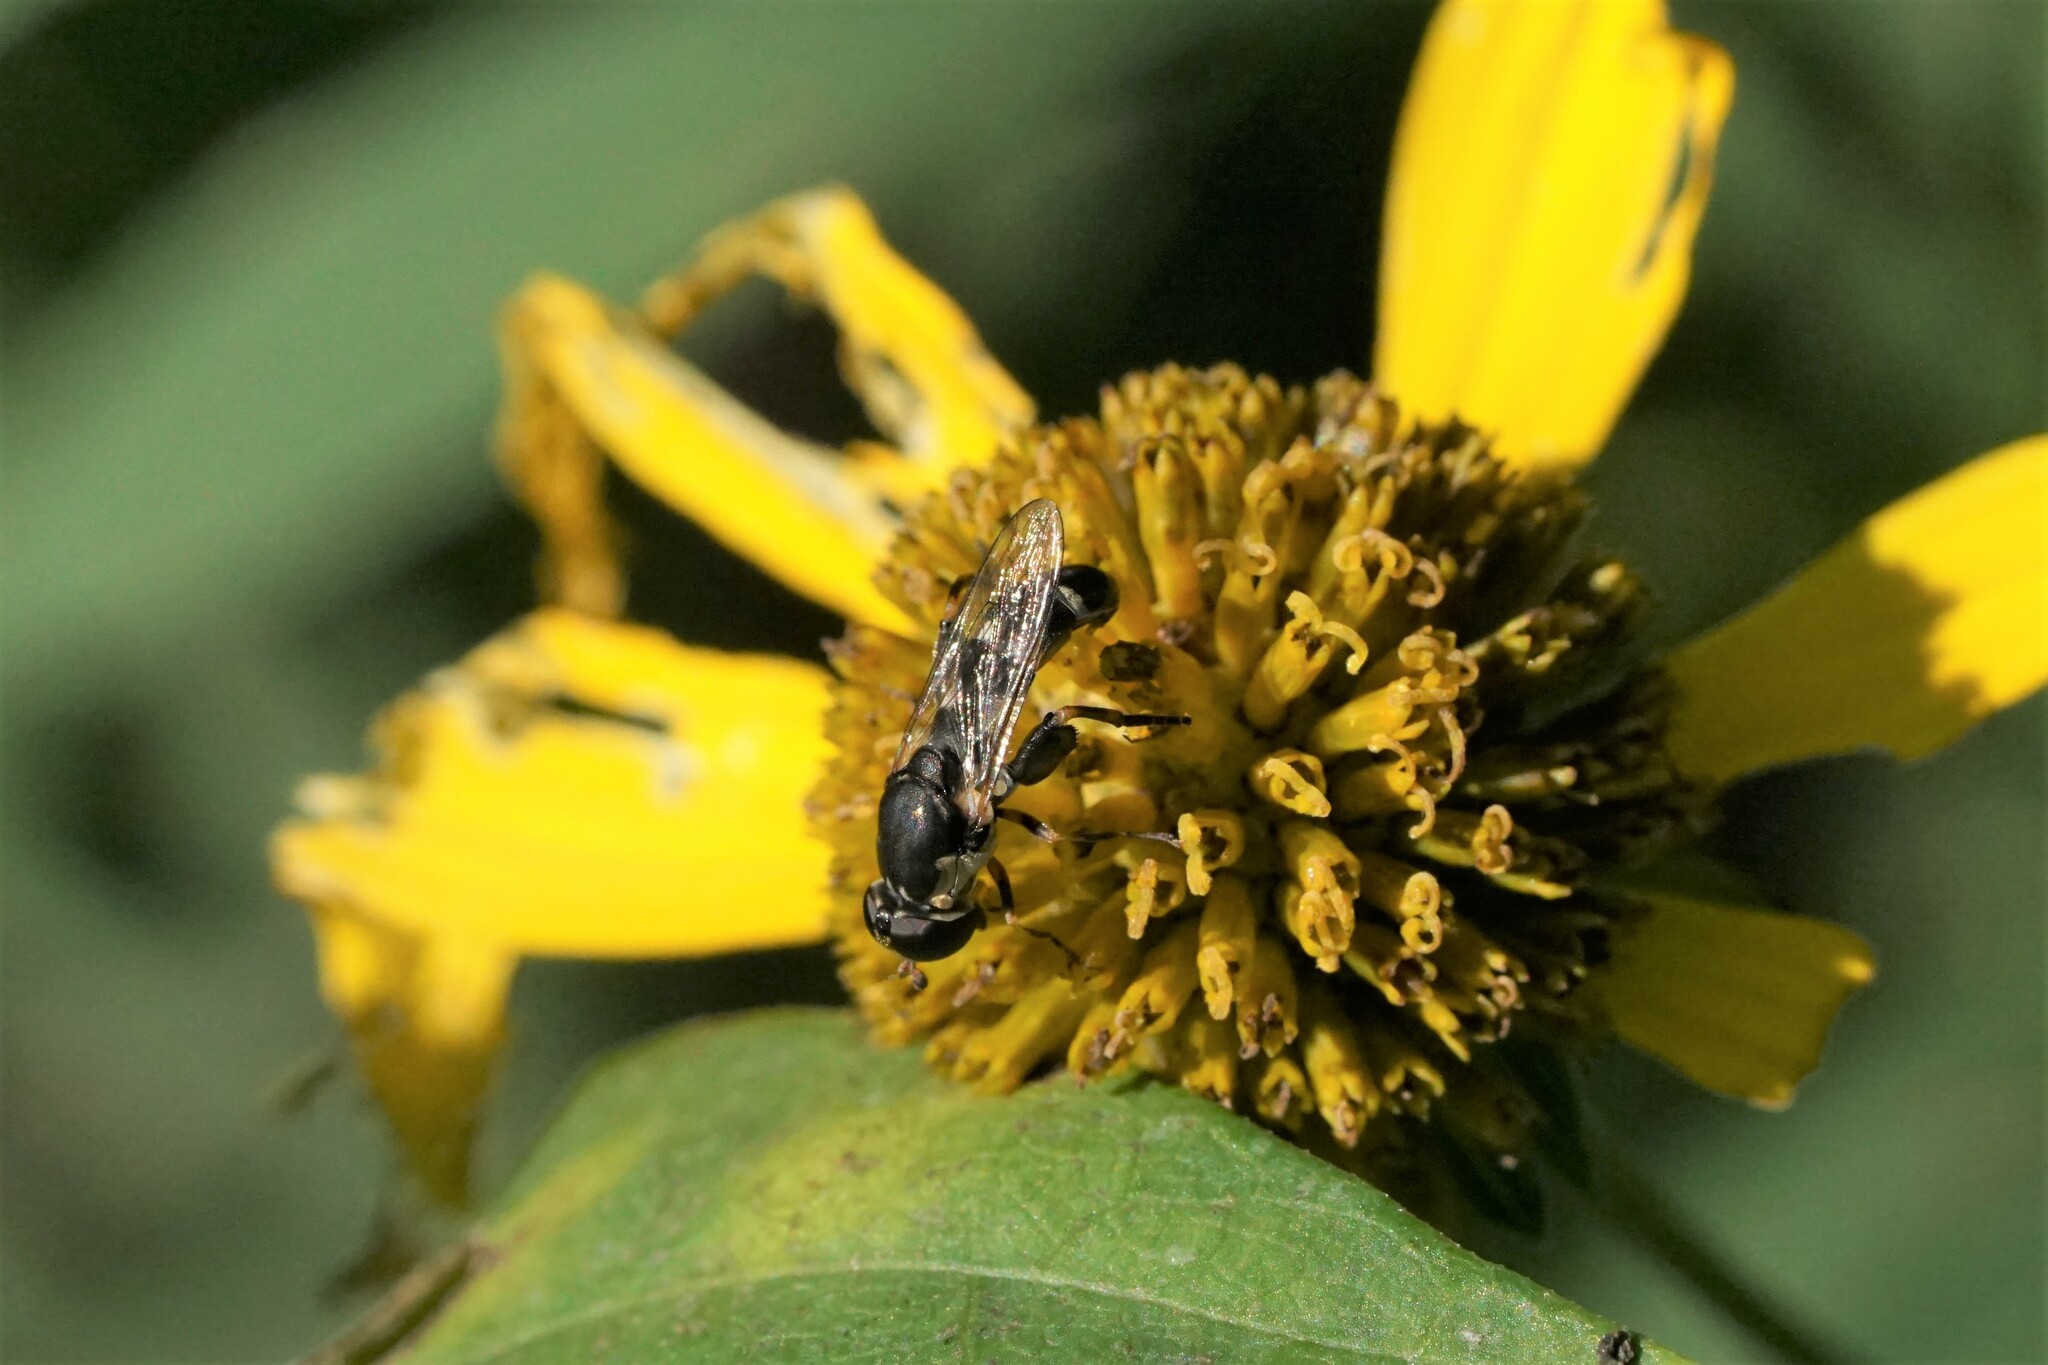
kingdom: Animalia
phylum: Arthropoda
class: Insecta
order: Diptera
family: Syrphidae
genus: Syritta
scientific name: Syritta pipiens
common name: Hover fly
